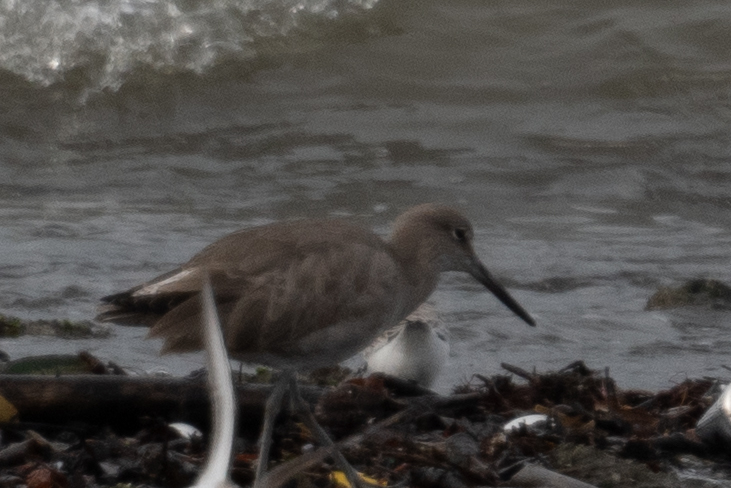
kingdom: Animalia
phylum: Chordata
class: Aves
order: Charadriiformes
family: Scolopacidae
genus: Tringa
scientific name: Tringa semipalmata
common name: Willet
